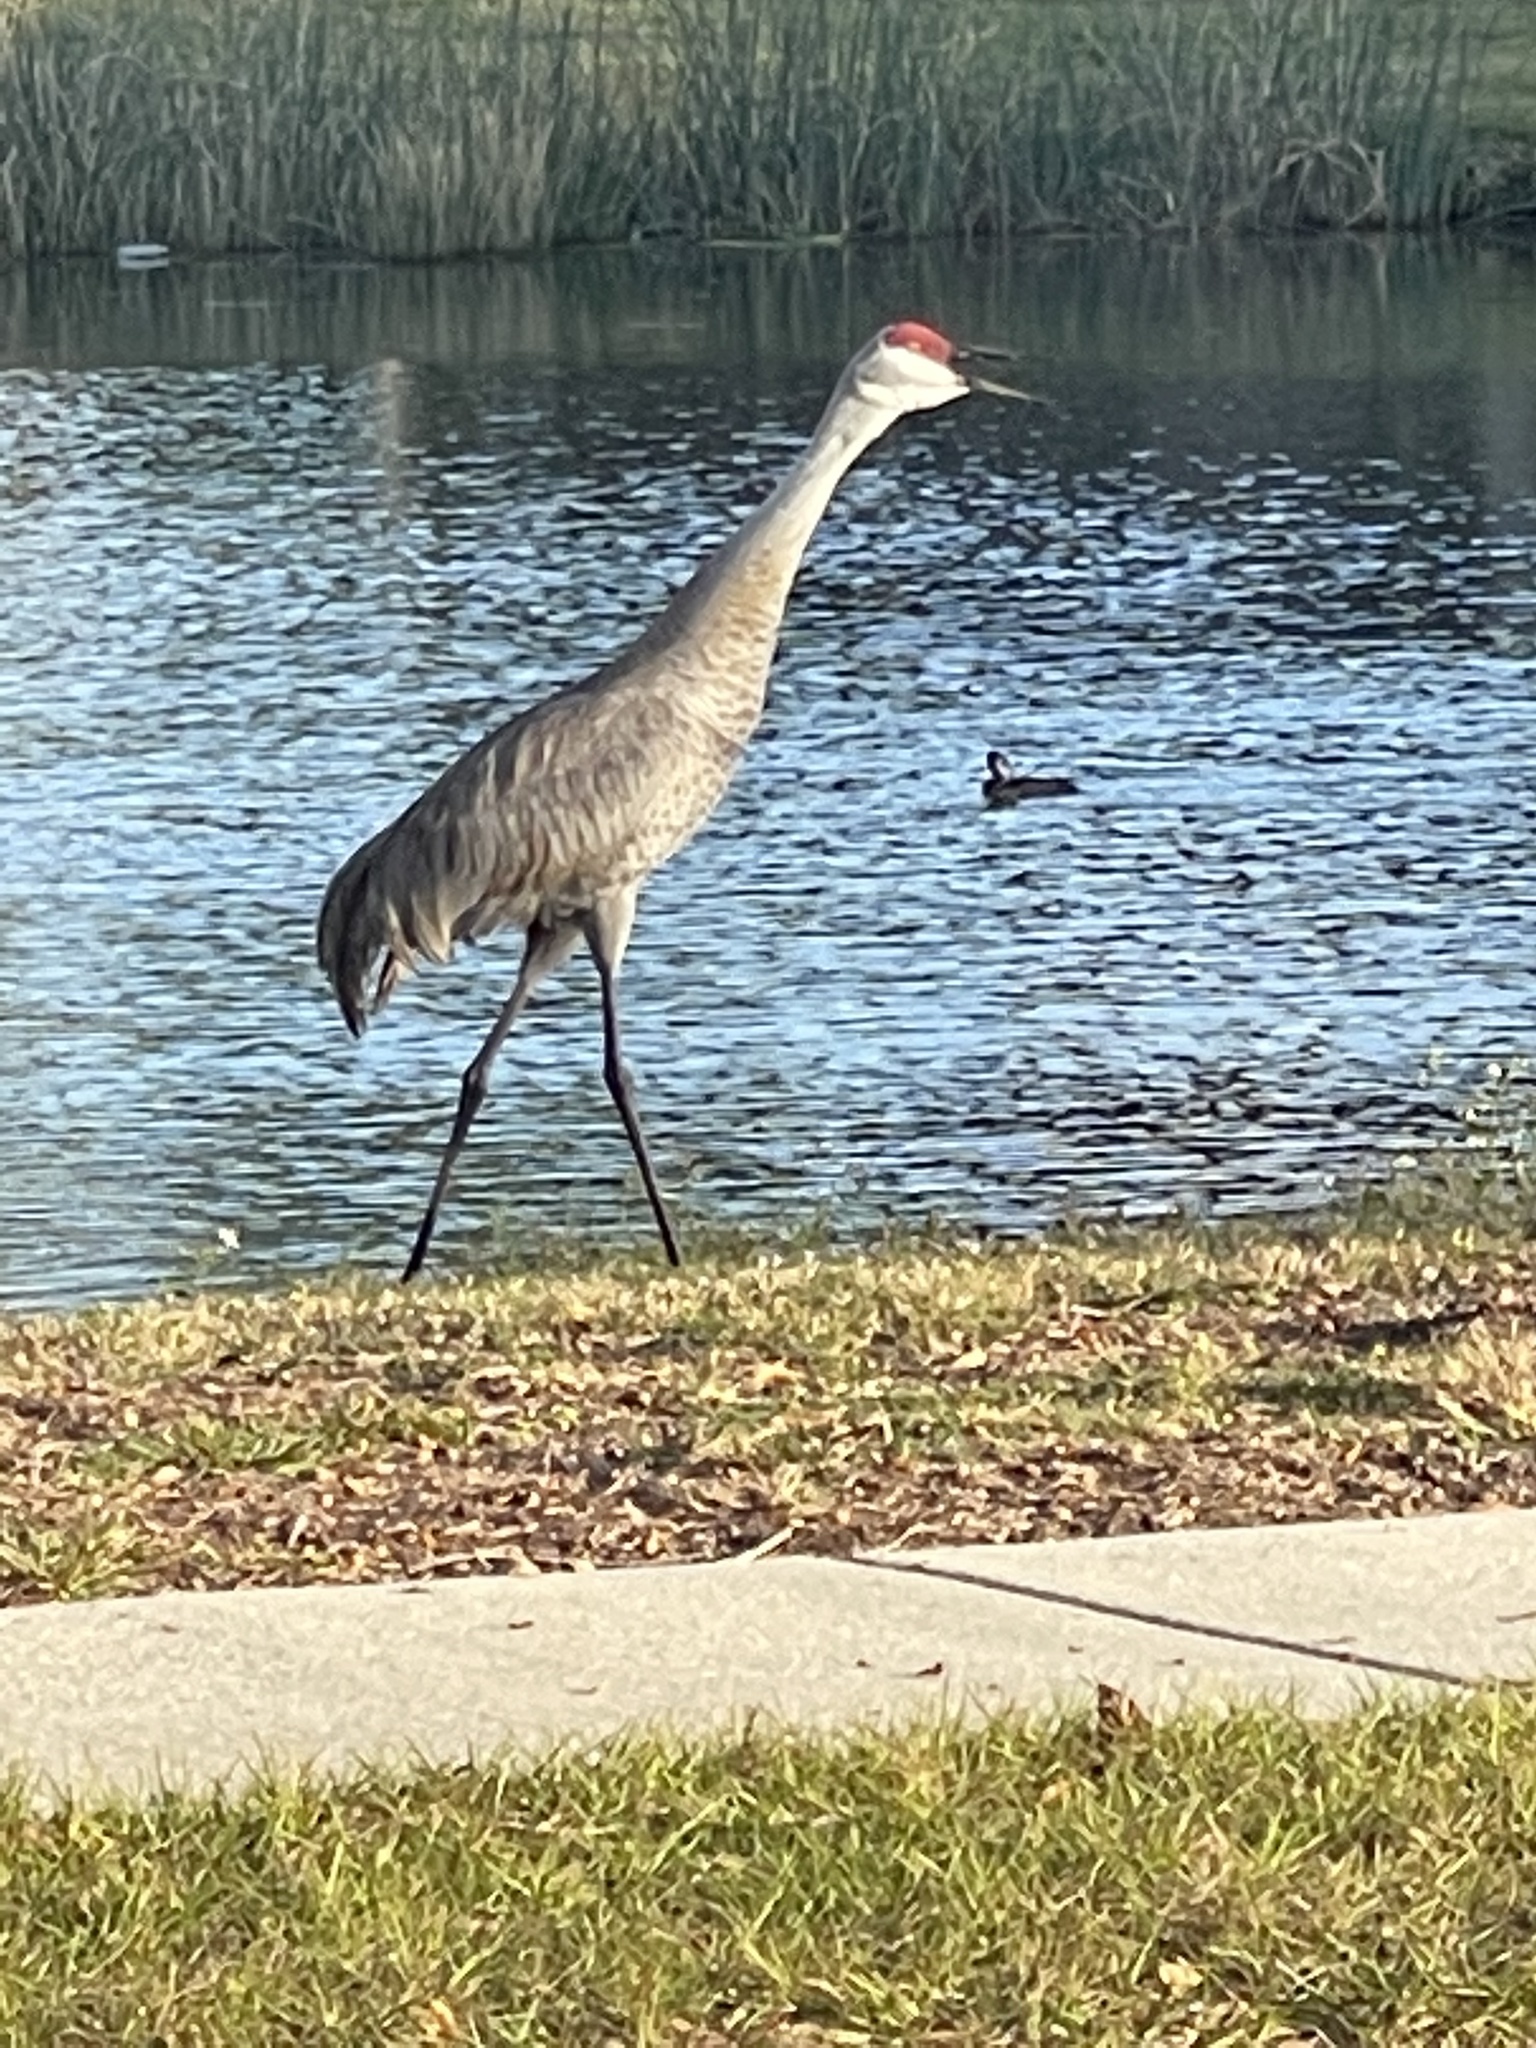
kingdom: Animalia
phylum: Chordata
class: Aves
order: Gruiformes
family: Gruidae
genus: Grus
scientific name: Grus canadensis
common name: Sandhill crane
